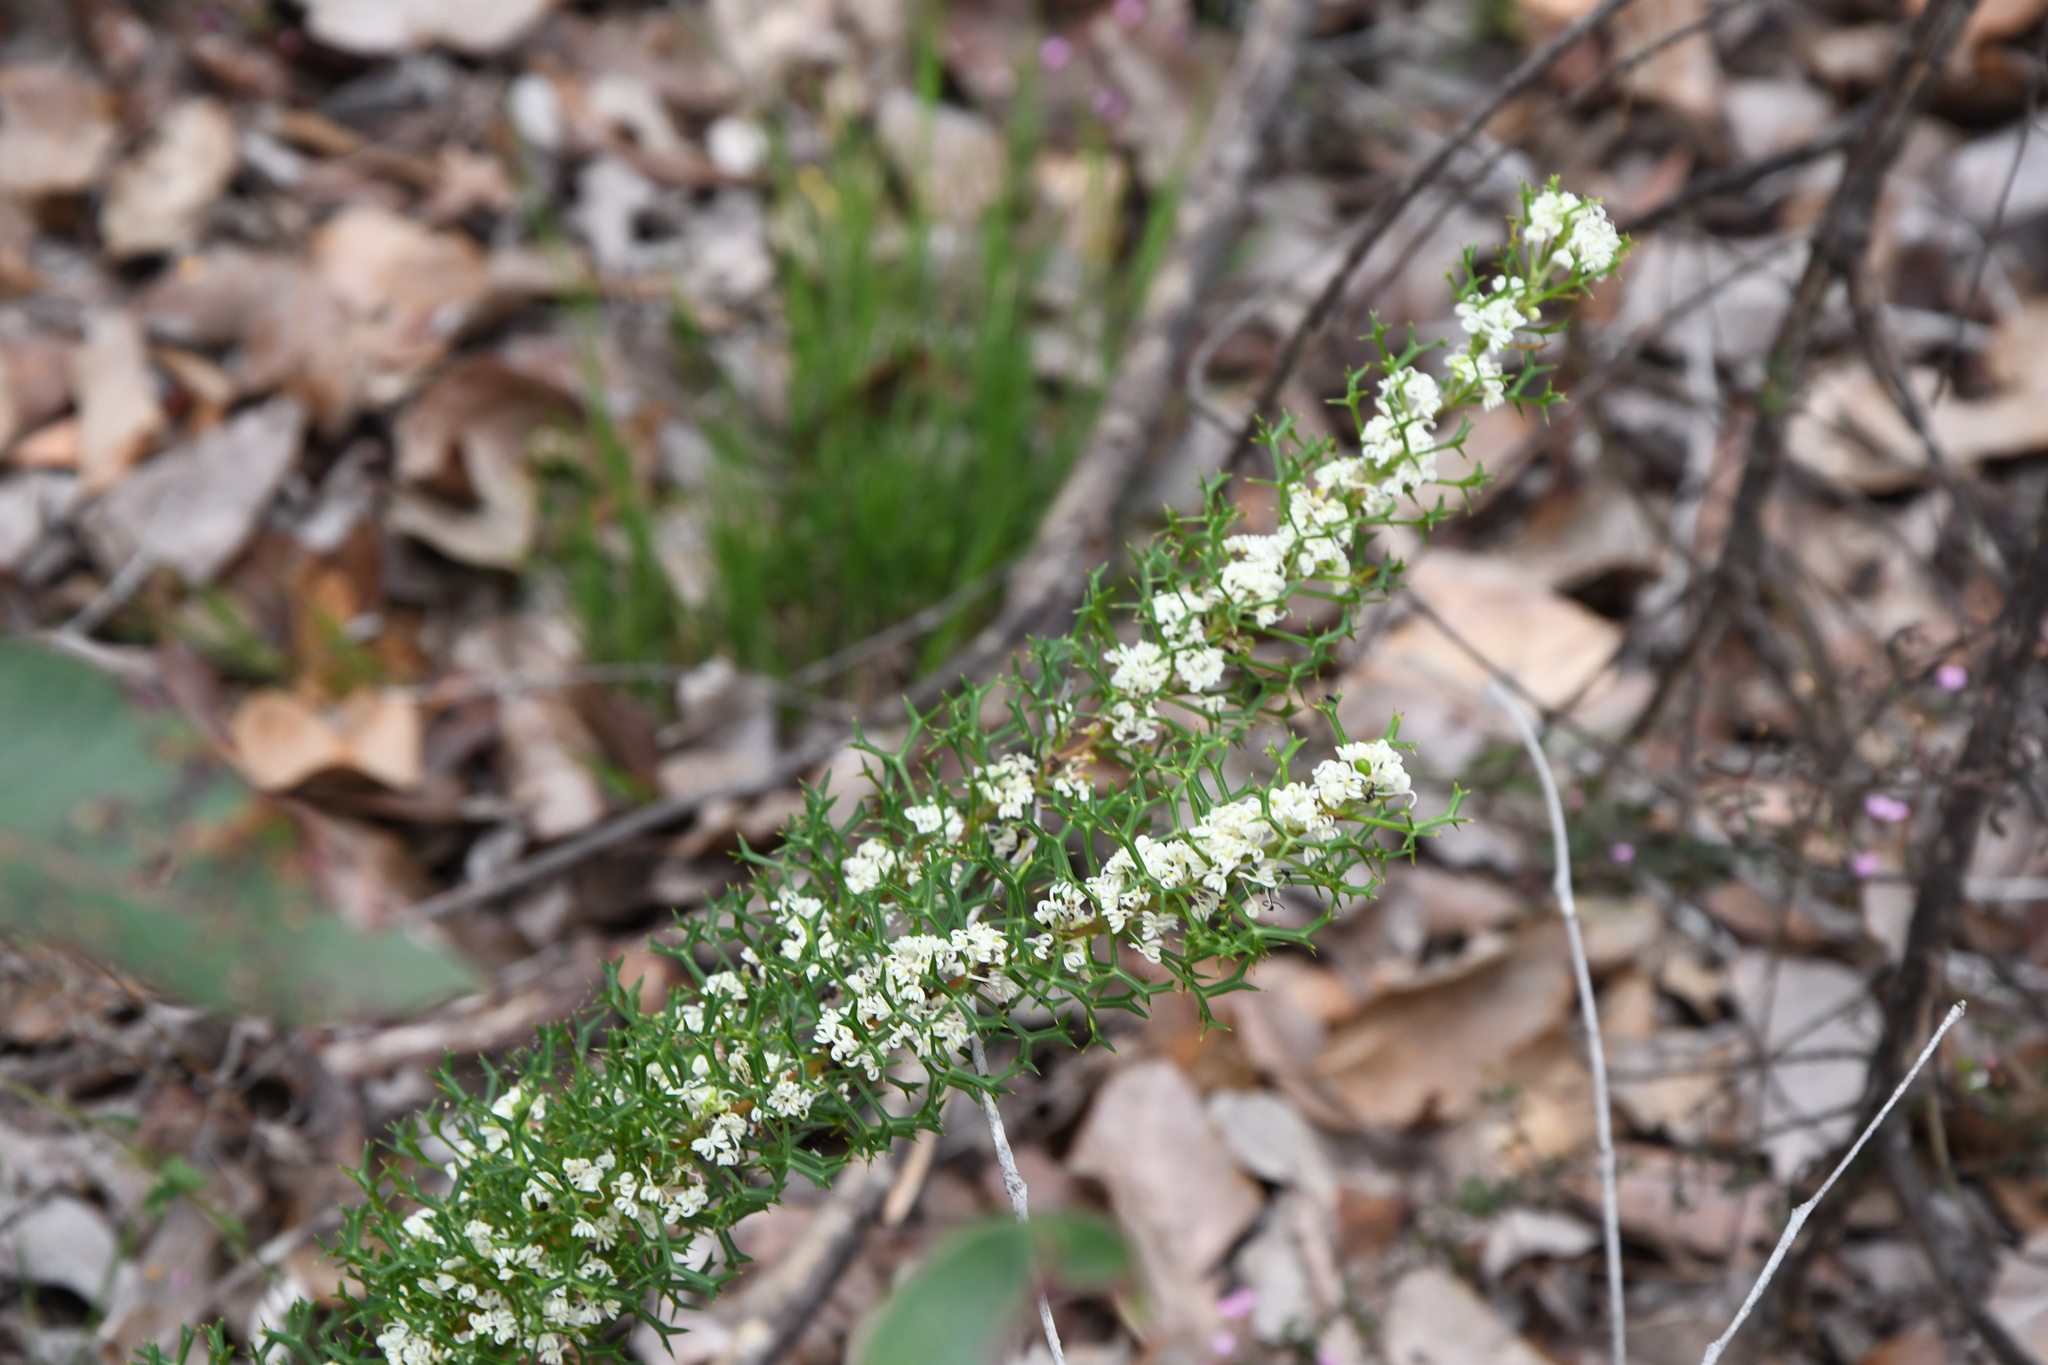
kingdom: Plantae
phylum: Tracheophyta
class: Magnoliopsida
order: Proteales
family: Proteaceae
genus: Grevillea
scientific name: Grevillea trifida
